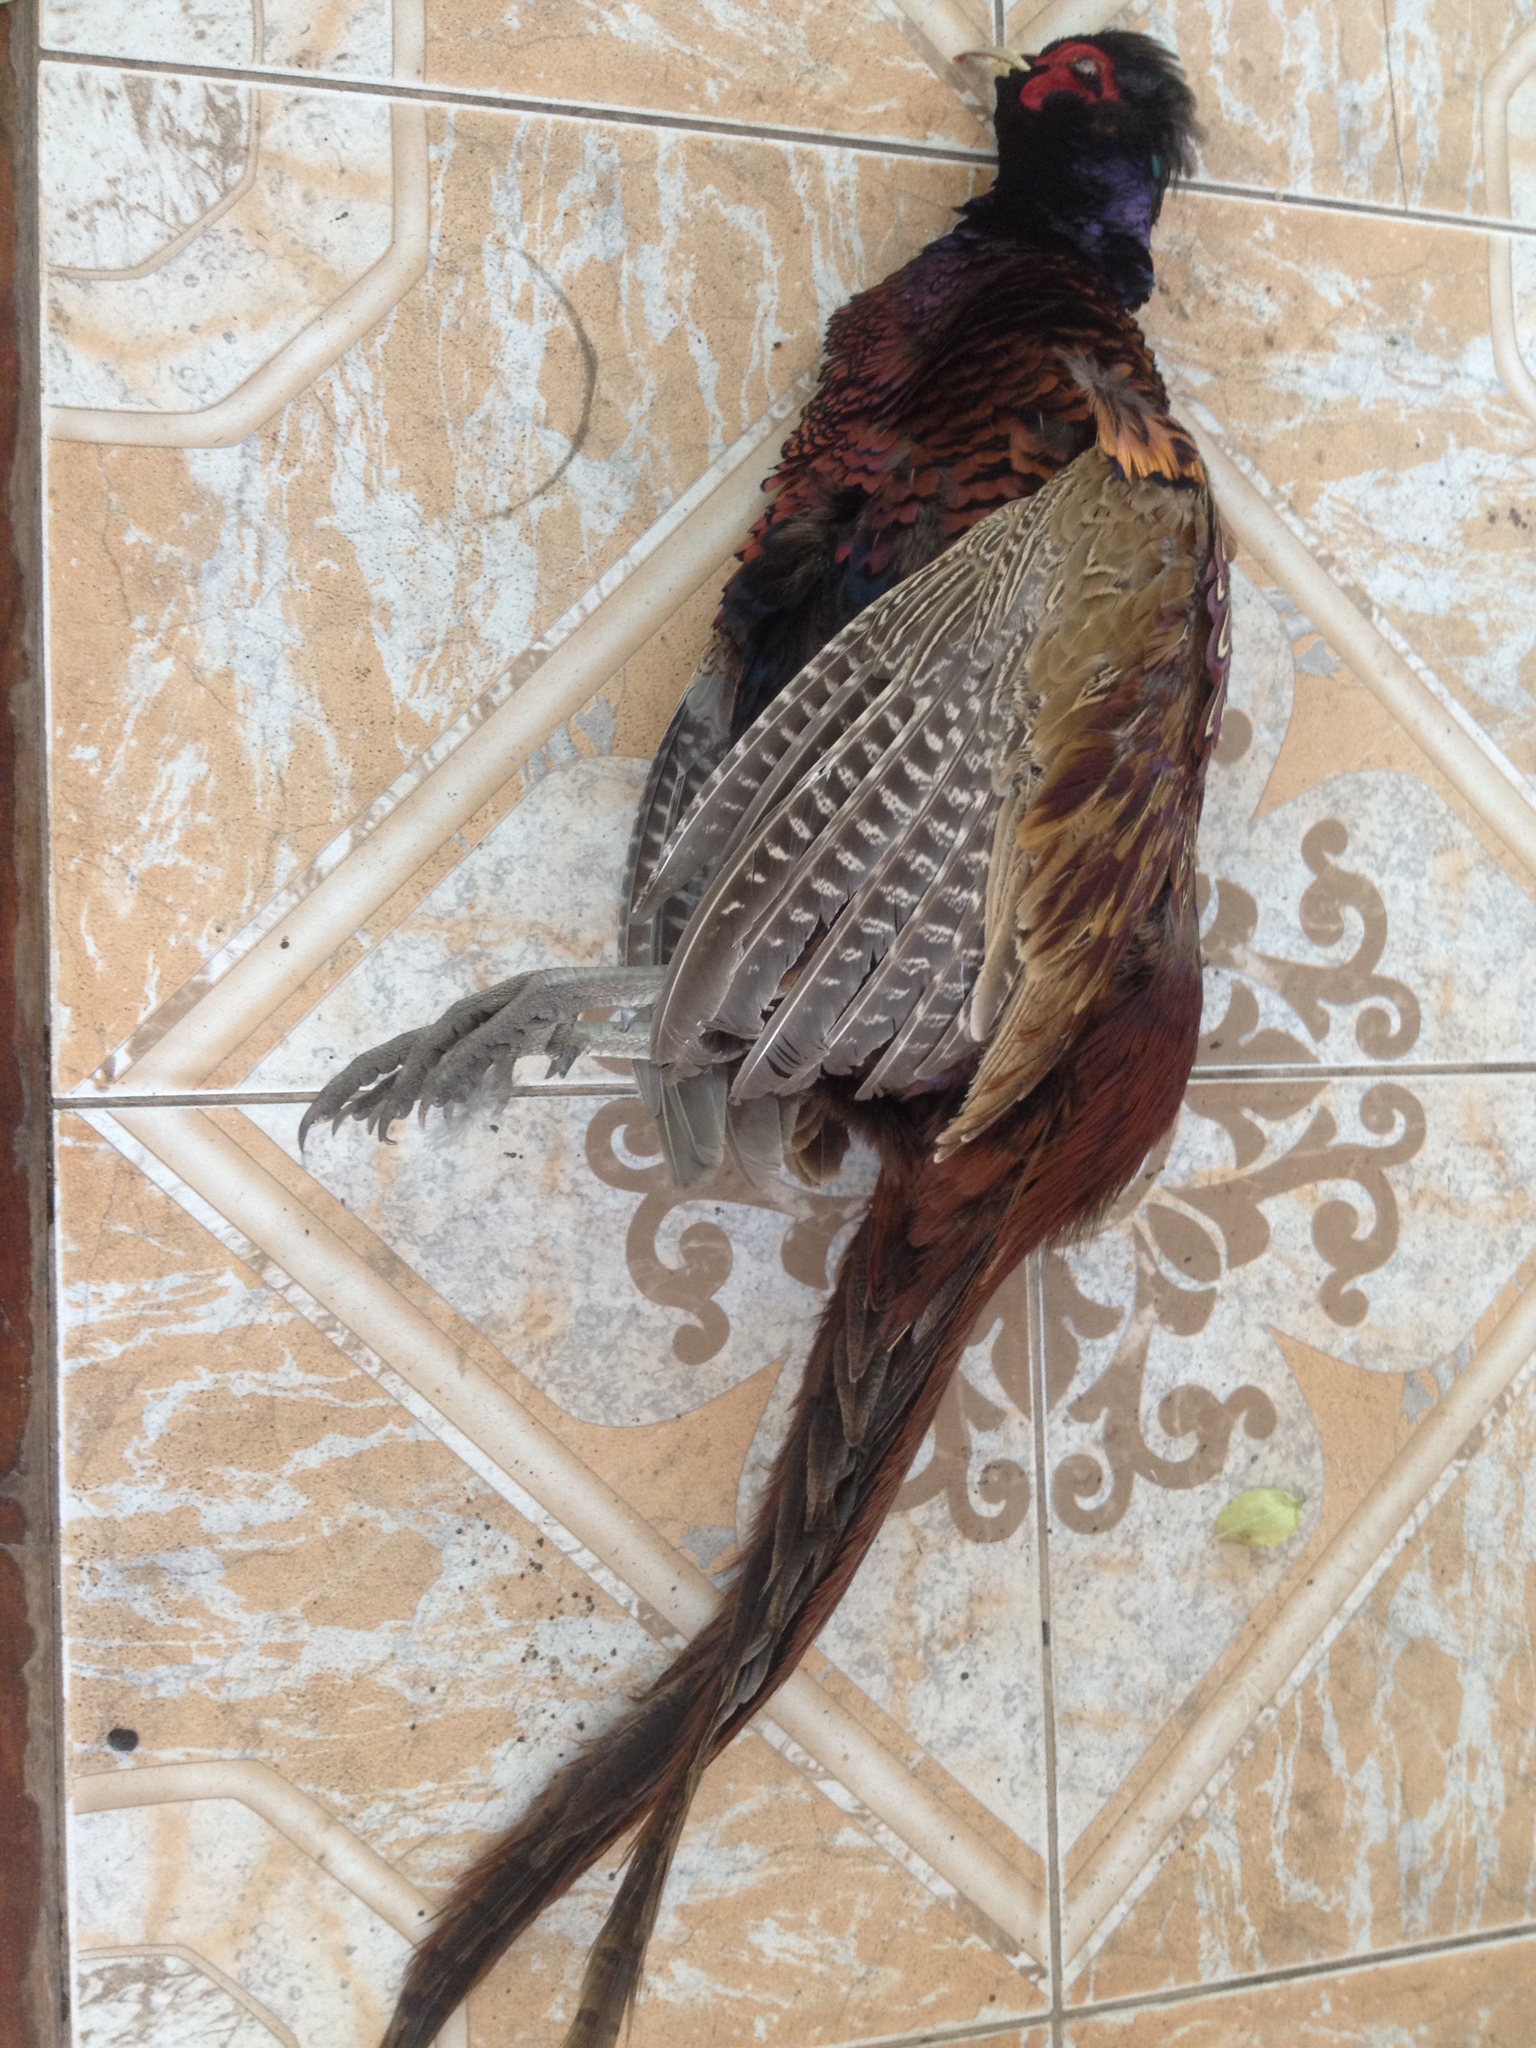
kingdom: Animalia
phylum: Chordata
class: Aves
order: Galliformes
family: Phasianidae
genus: Phasianus
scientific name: Phasianus colchicus
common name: Common pheasant
